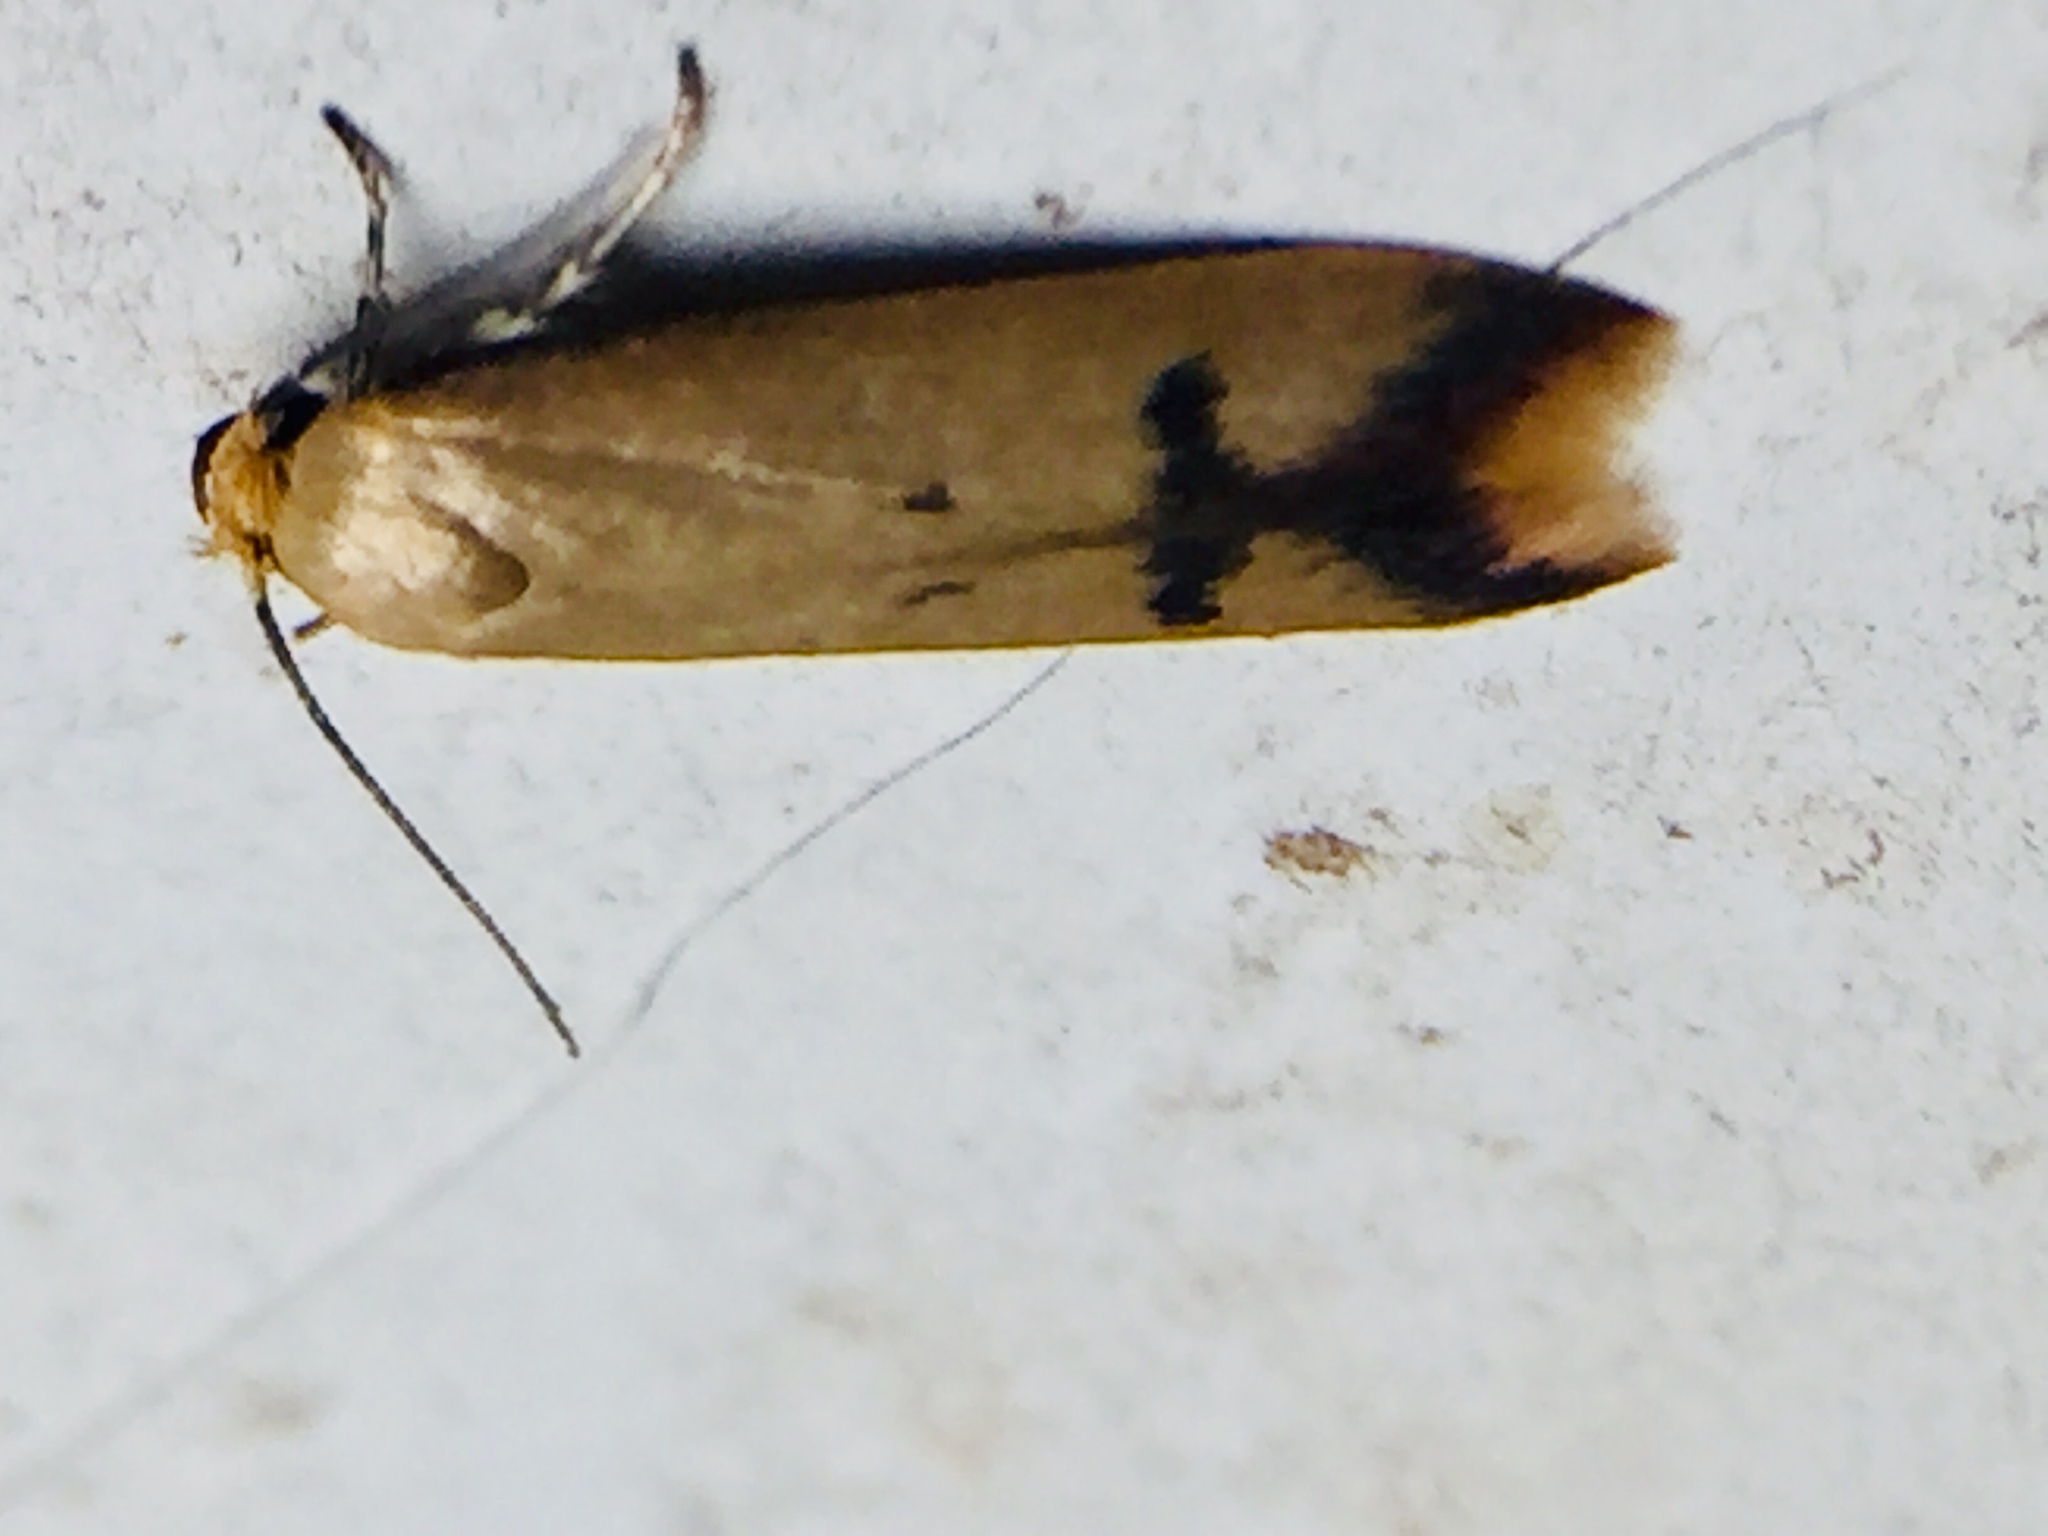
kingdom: Animalia
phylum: Arthropoda
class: Insecta
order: Lepidoptera
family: Oecophoridae
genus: Tachystola
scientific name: Tachystola hemisema
